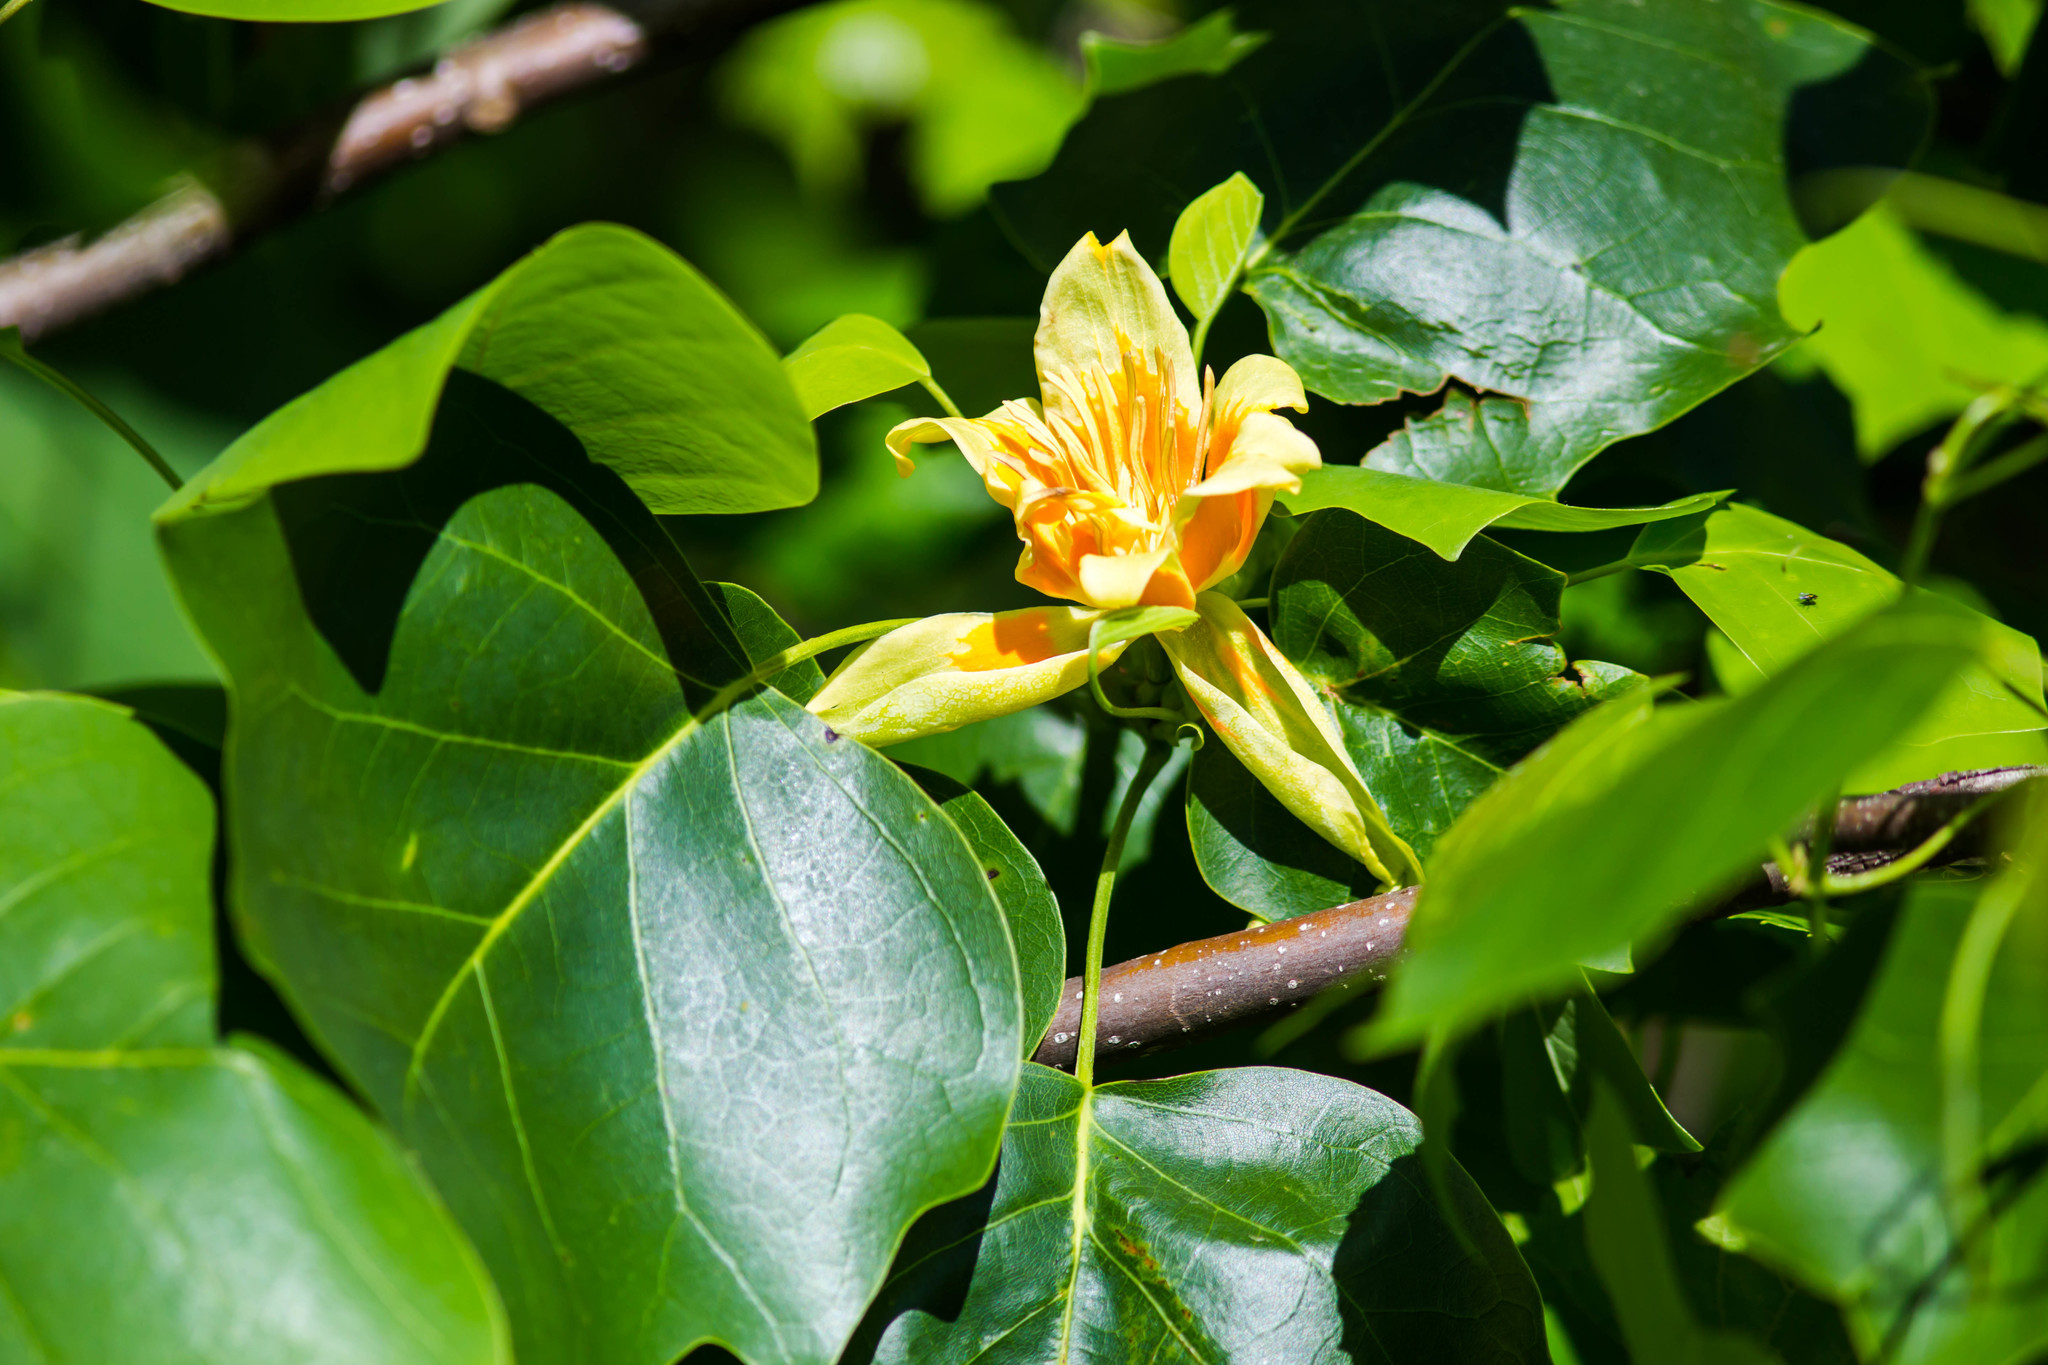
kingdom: Plantae
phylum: Tracheophyta
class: Magnoliopsida
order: Magnoliales
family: Magnoliaceae
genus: Liriodendron
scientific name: Liriodendron tulipifera
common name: Tulip tree
